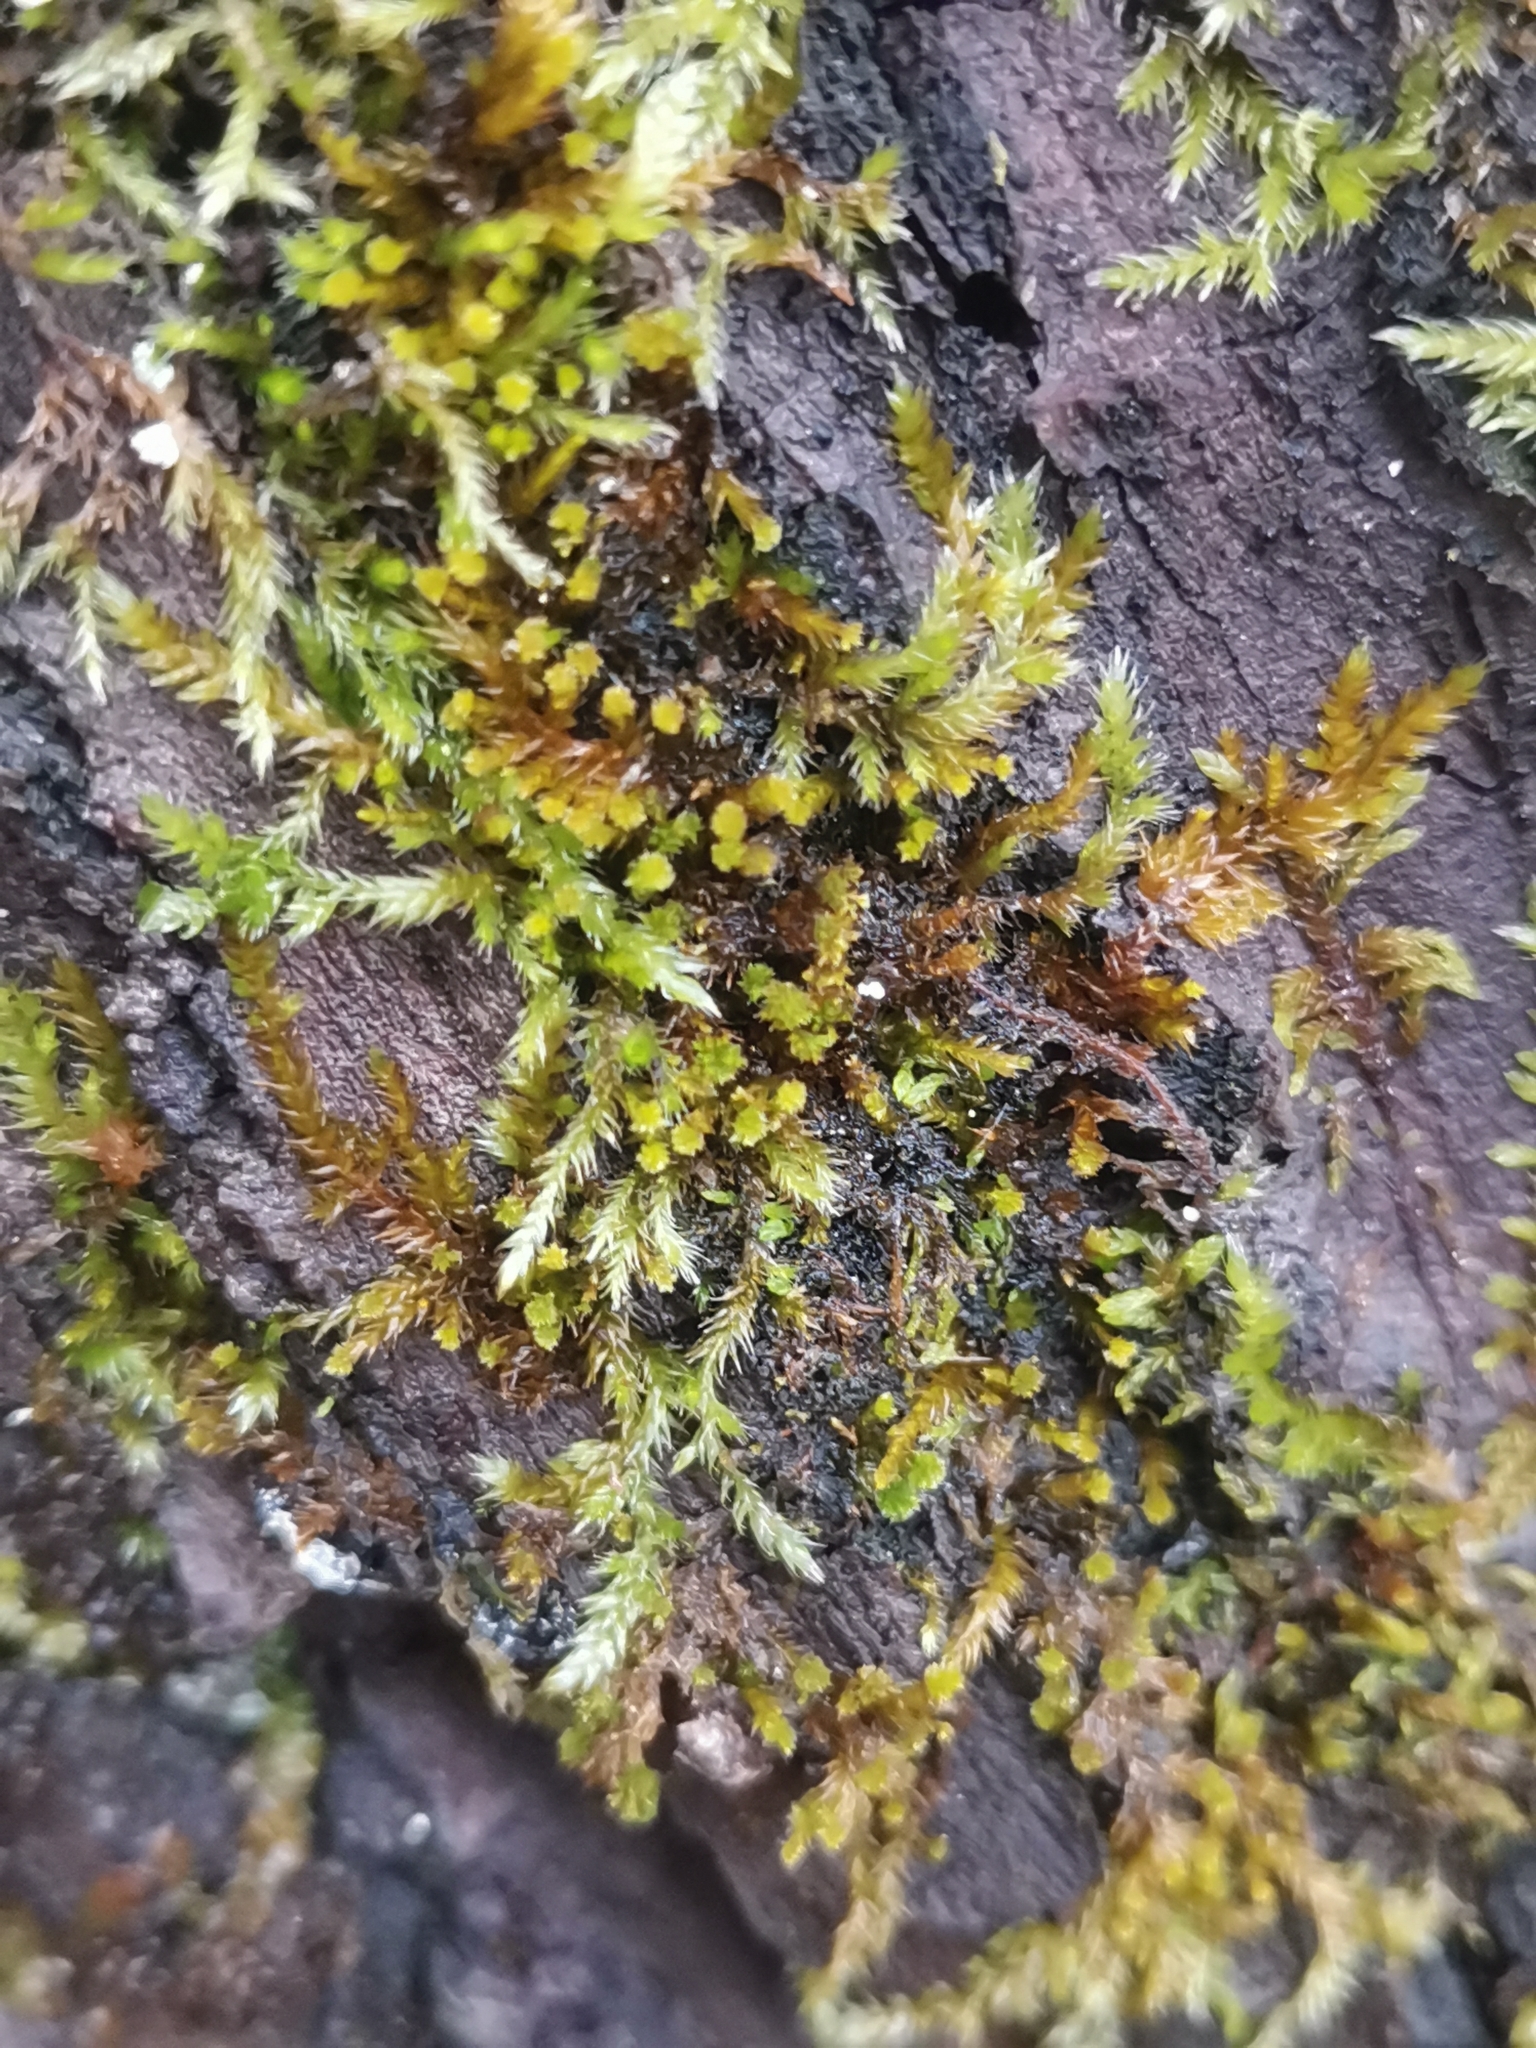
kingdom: Plantae
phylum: Bryophyta
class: Bryopsida
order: Hypnales
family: Pylaisiadelphaceae
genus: Platygyrium
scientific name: Platygyrium repens
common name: Flat-brocade moss
